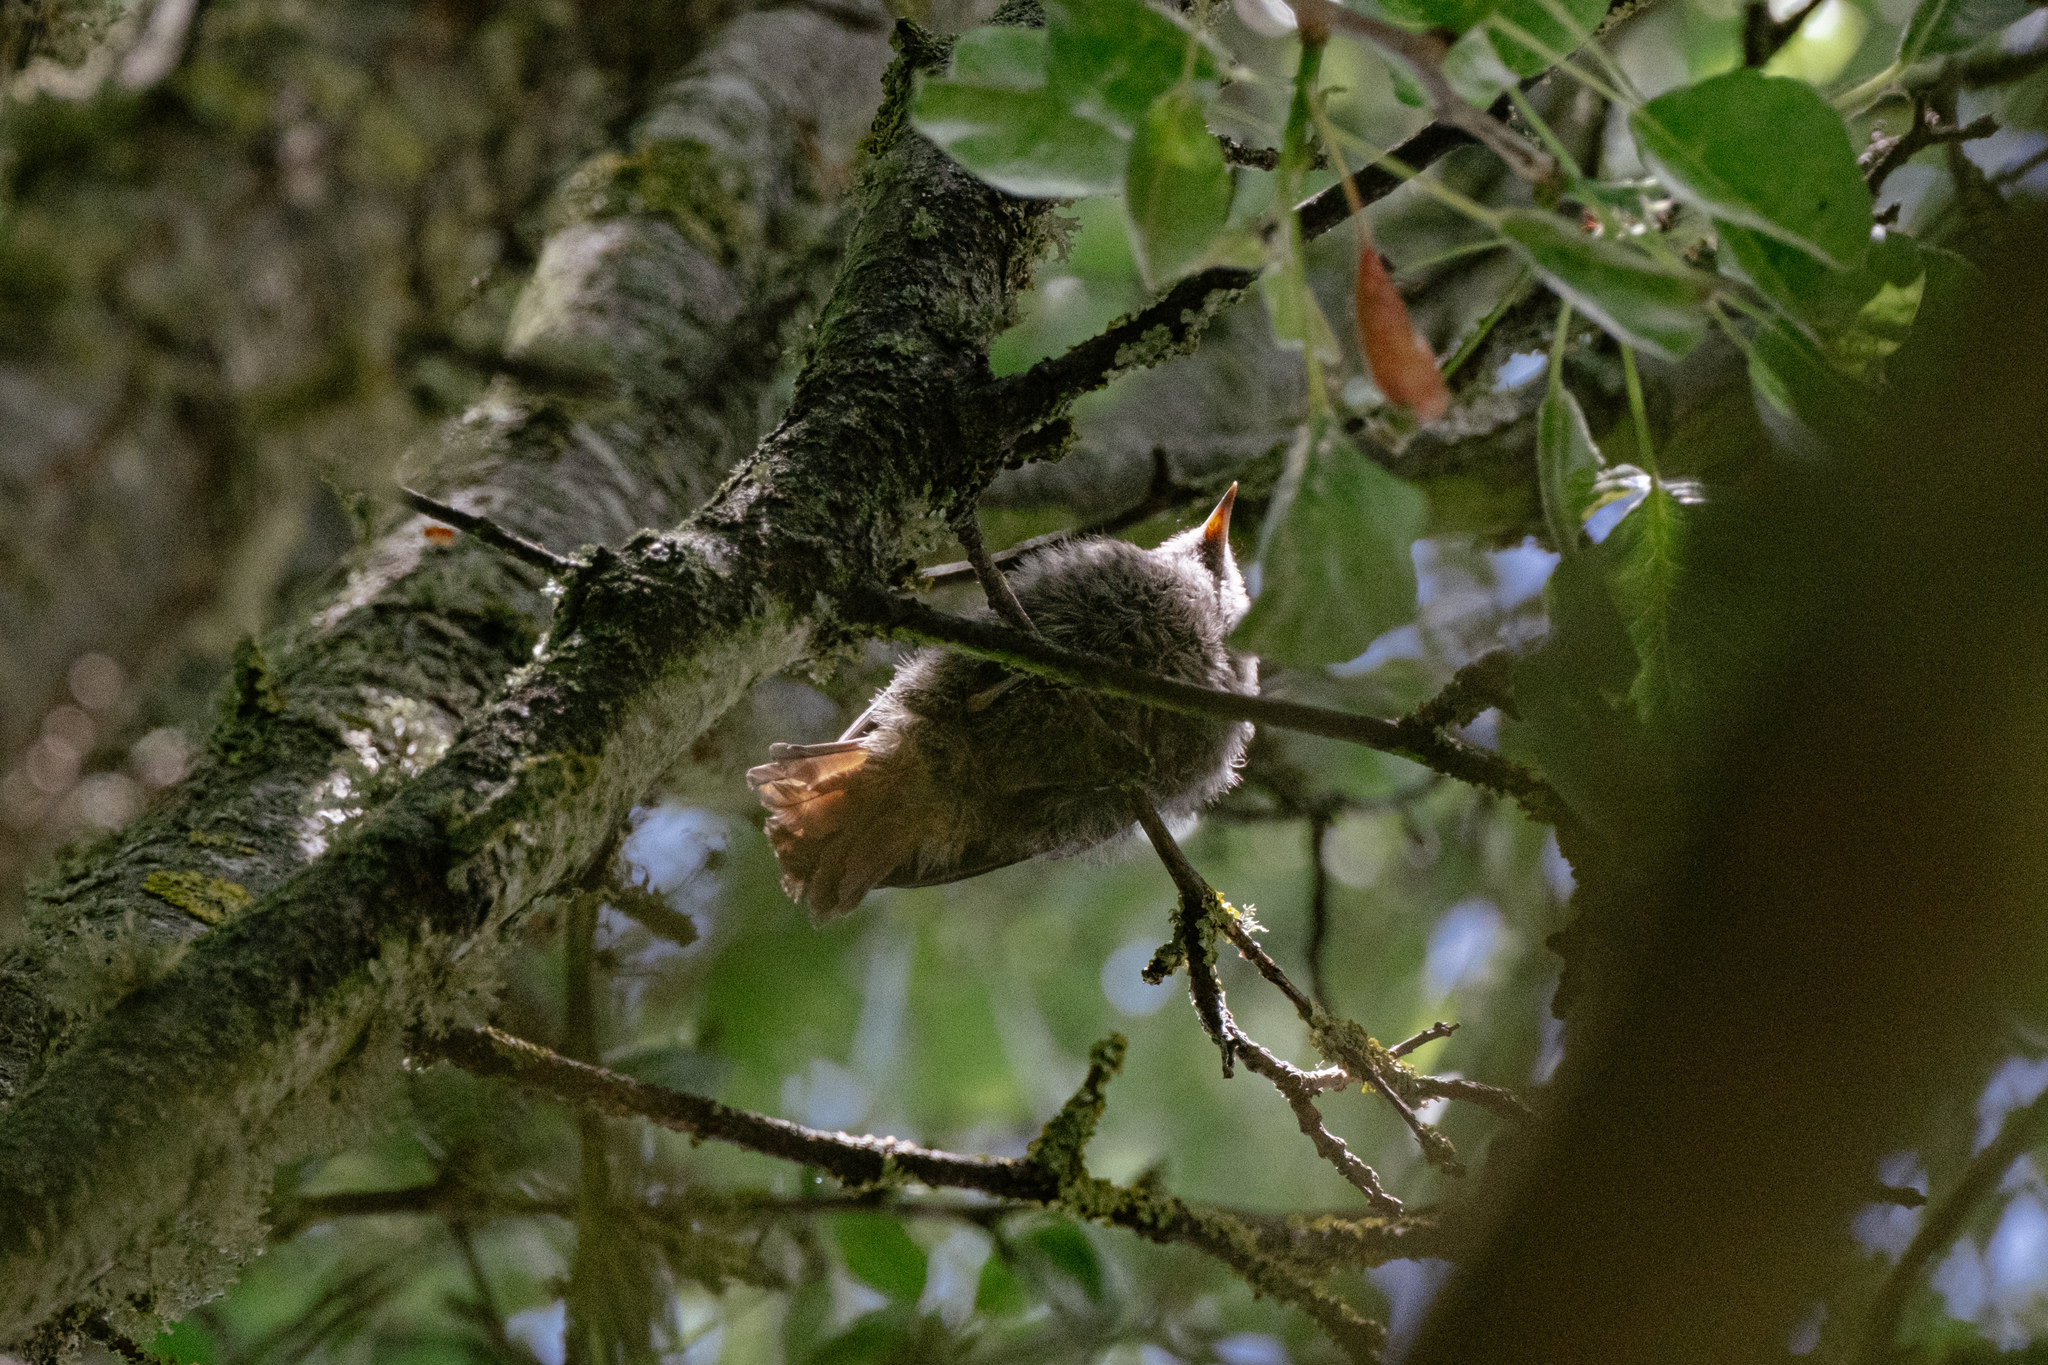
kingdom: Animalia
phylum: Chordata
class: Aves
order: Passeriformes
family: Muscicapidae
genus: Phoenicurus
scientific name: Phoenicurus ochruros
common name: Black redstart
